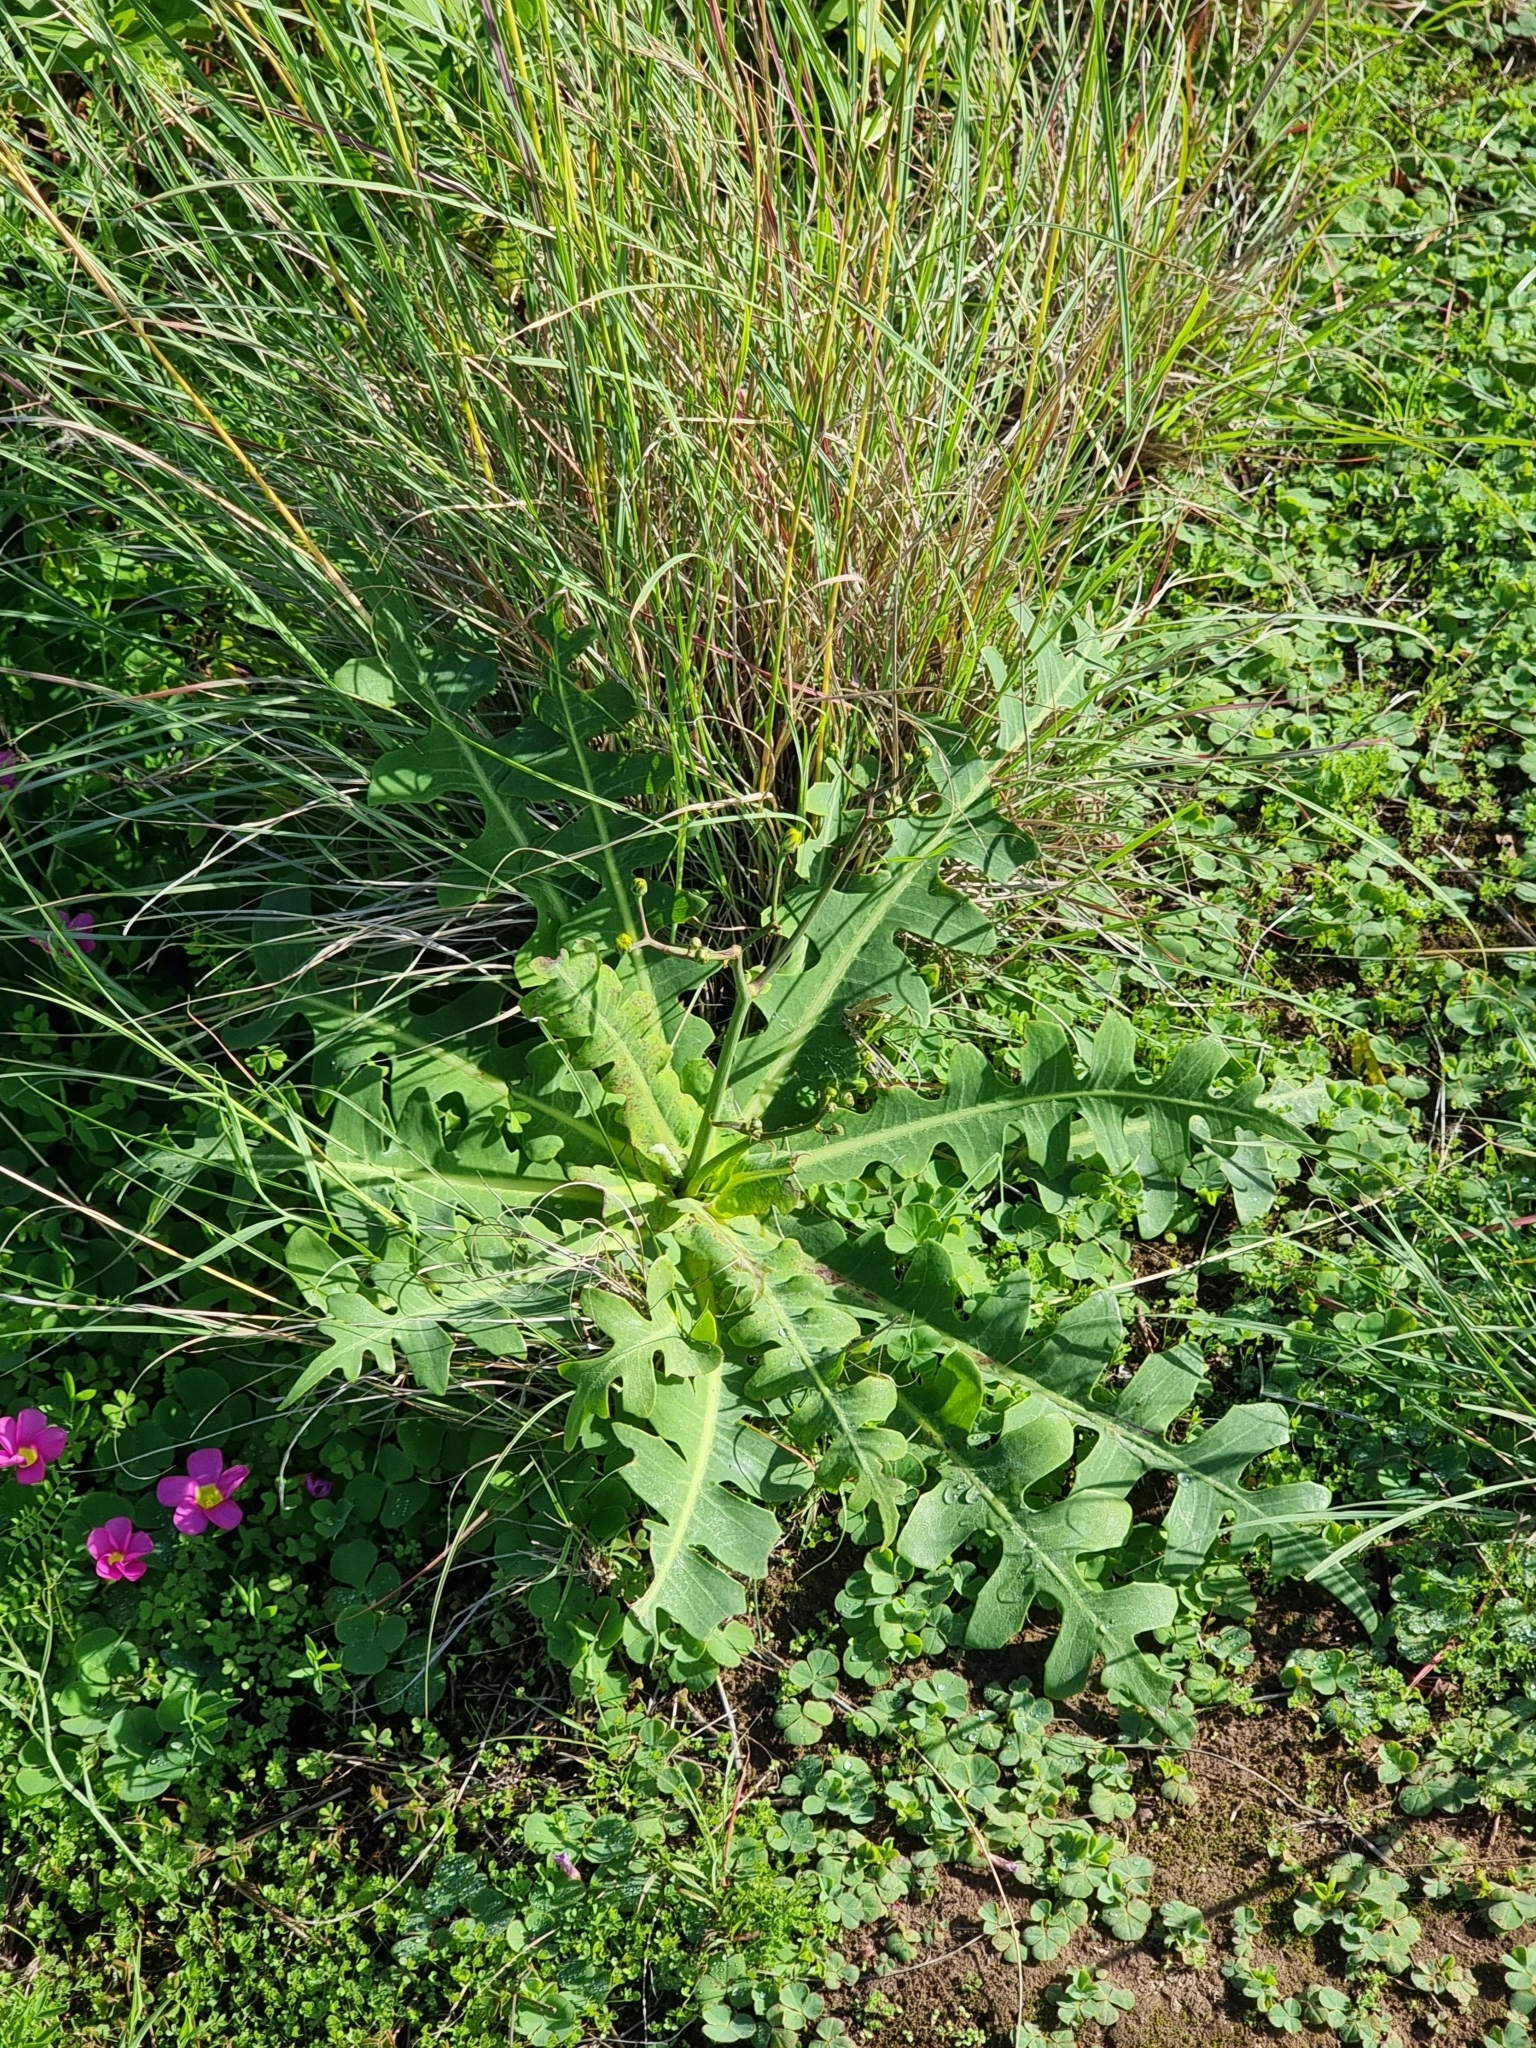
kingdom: Plantae
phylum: Tracheophyta
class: Magnoliopsida
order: Asterales
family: Asteraceae
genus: Sonchus
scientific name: Sonchus latifolius
